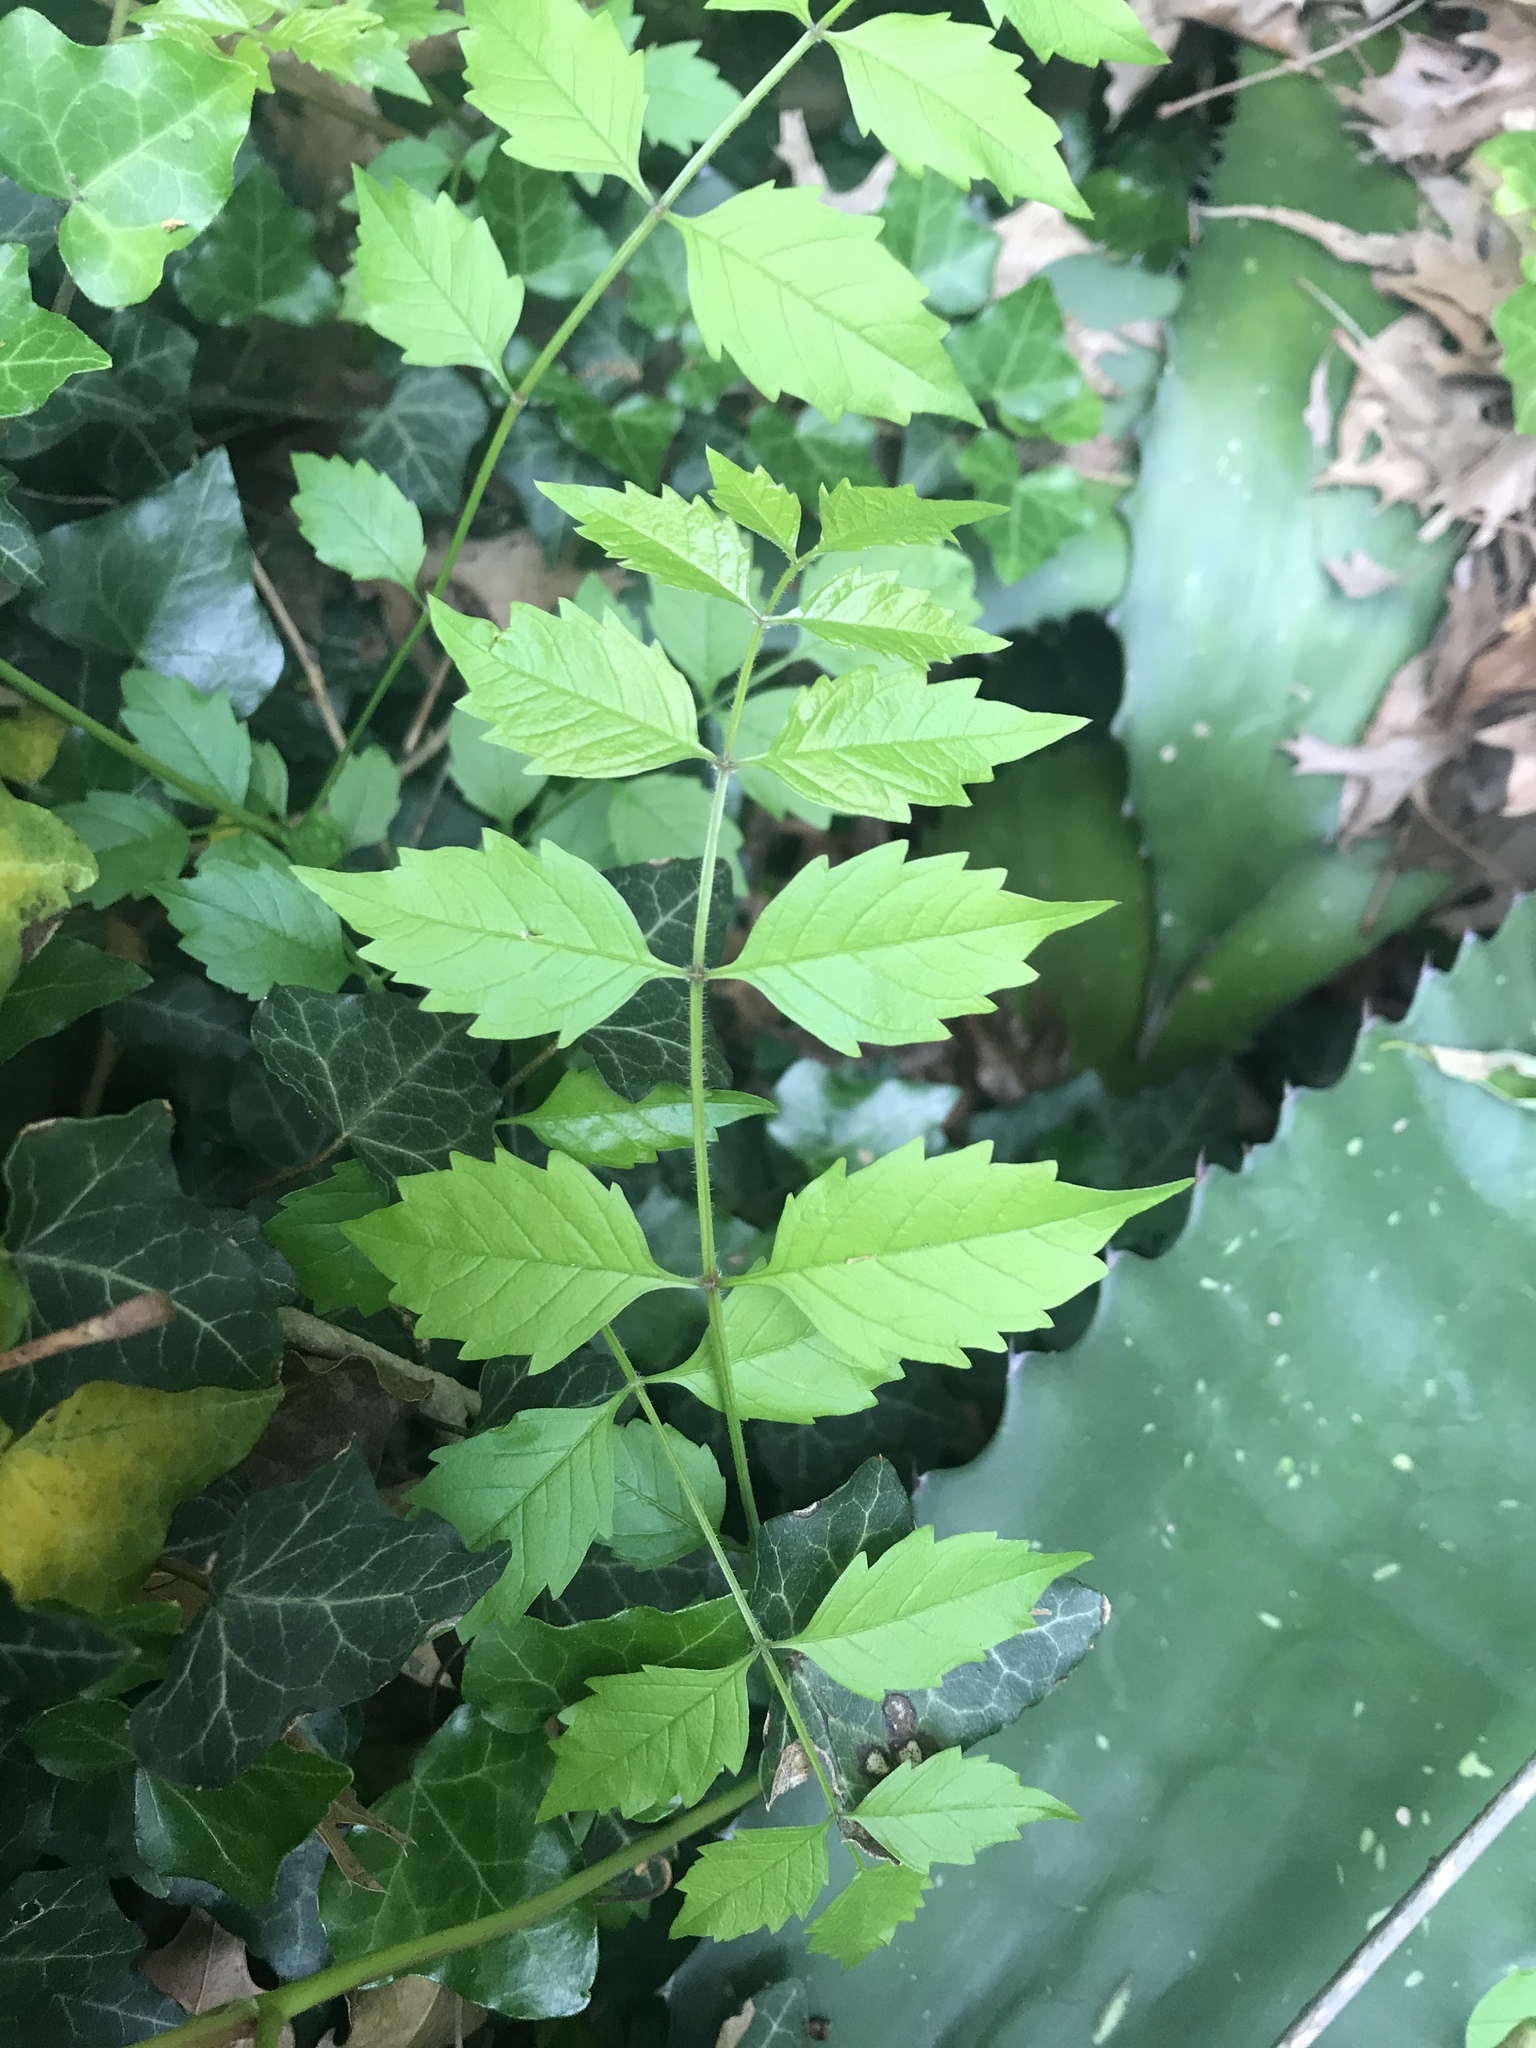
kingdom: Plantae
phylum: Tracheophyta
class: Magnoliopsida
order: Lamiales
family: Bignoniaceae
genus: Campsis
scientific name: Campsis radicans
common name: Trumpet-creeper
